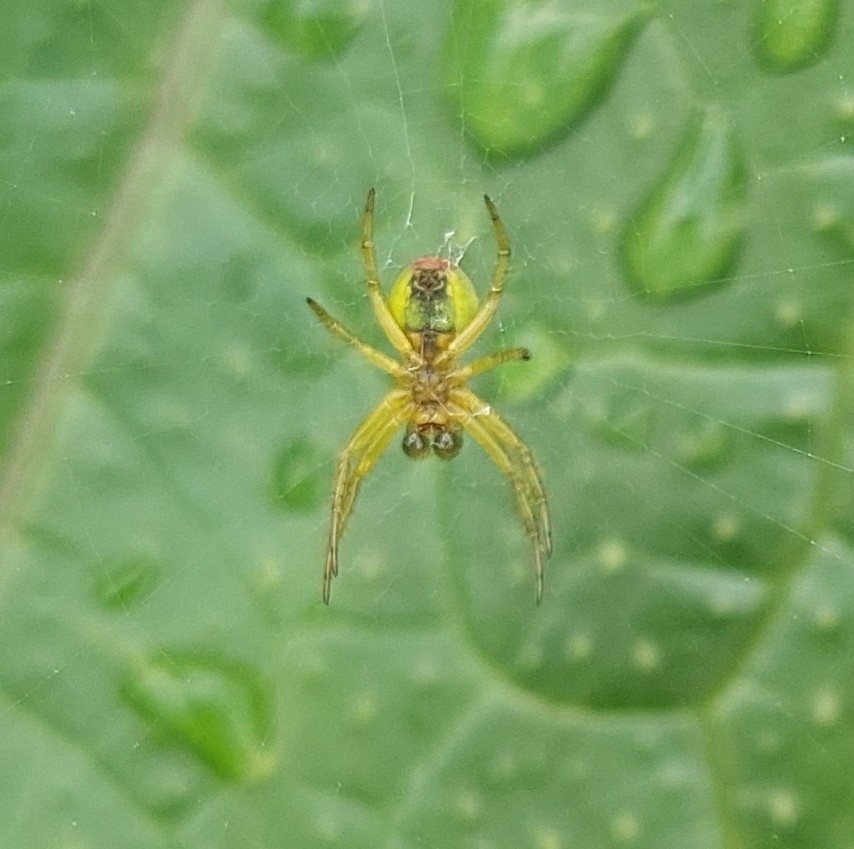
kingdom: Animalia
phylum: Arthropoda
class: Arachnida
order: Araneae
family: Araneidae
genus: Araniella
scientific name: Araniella
